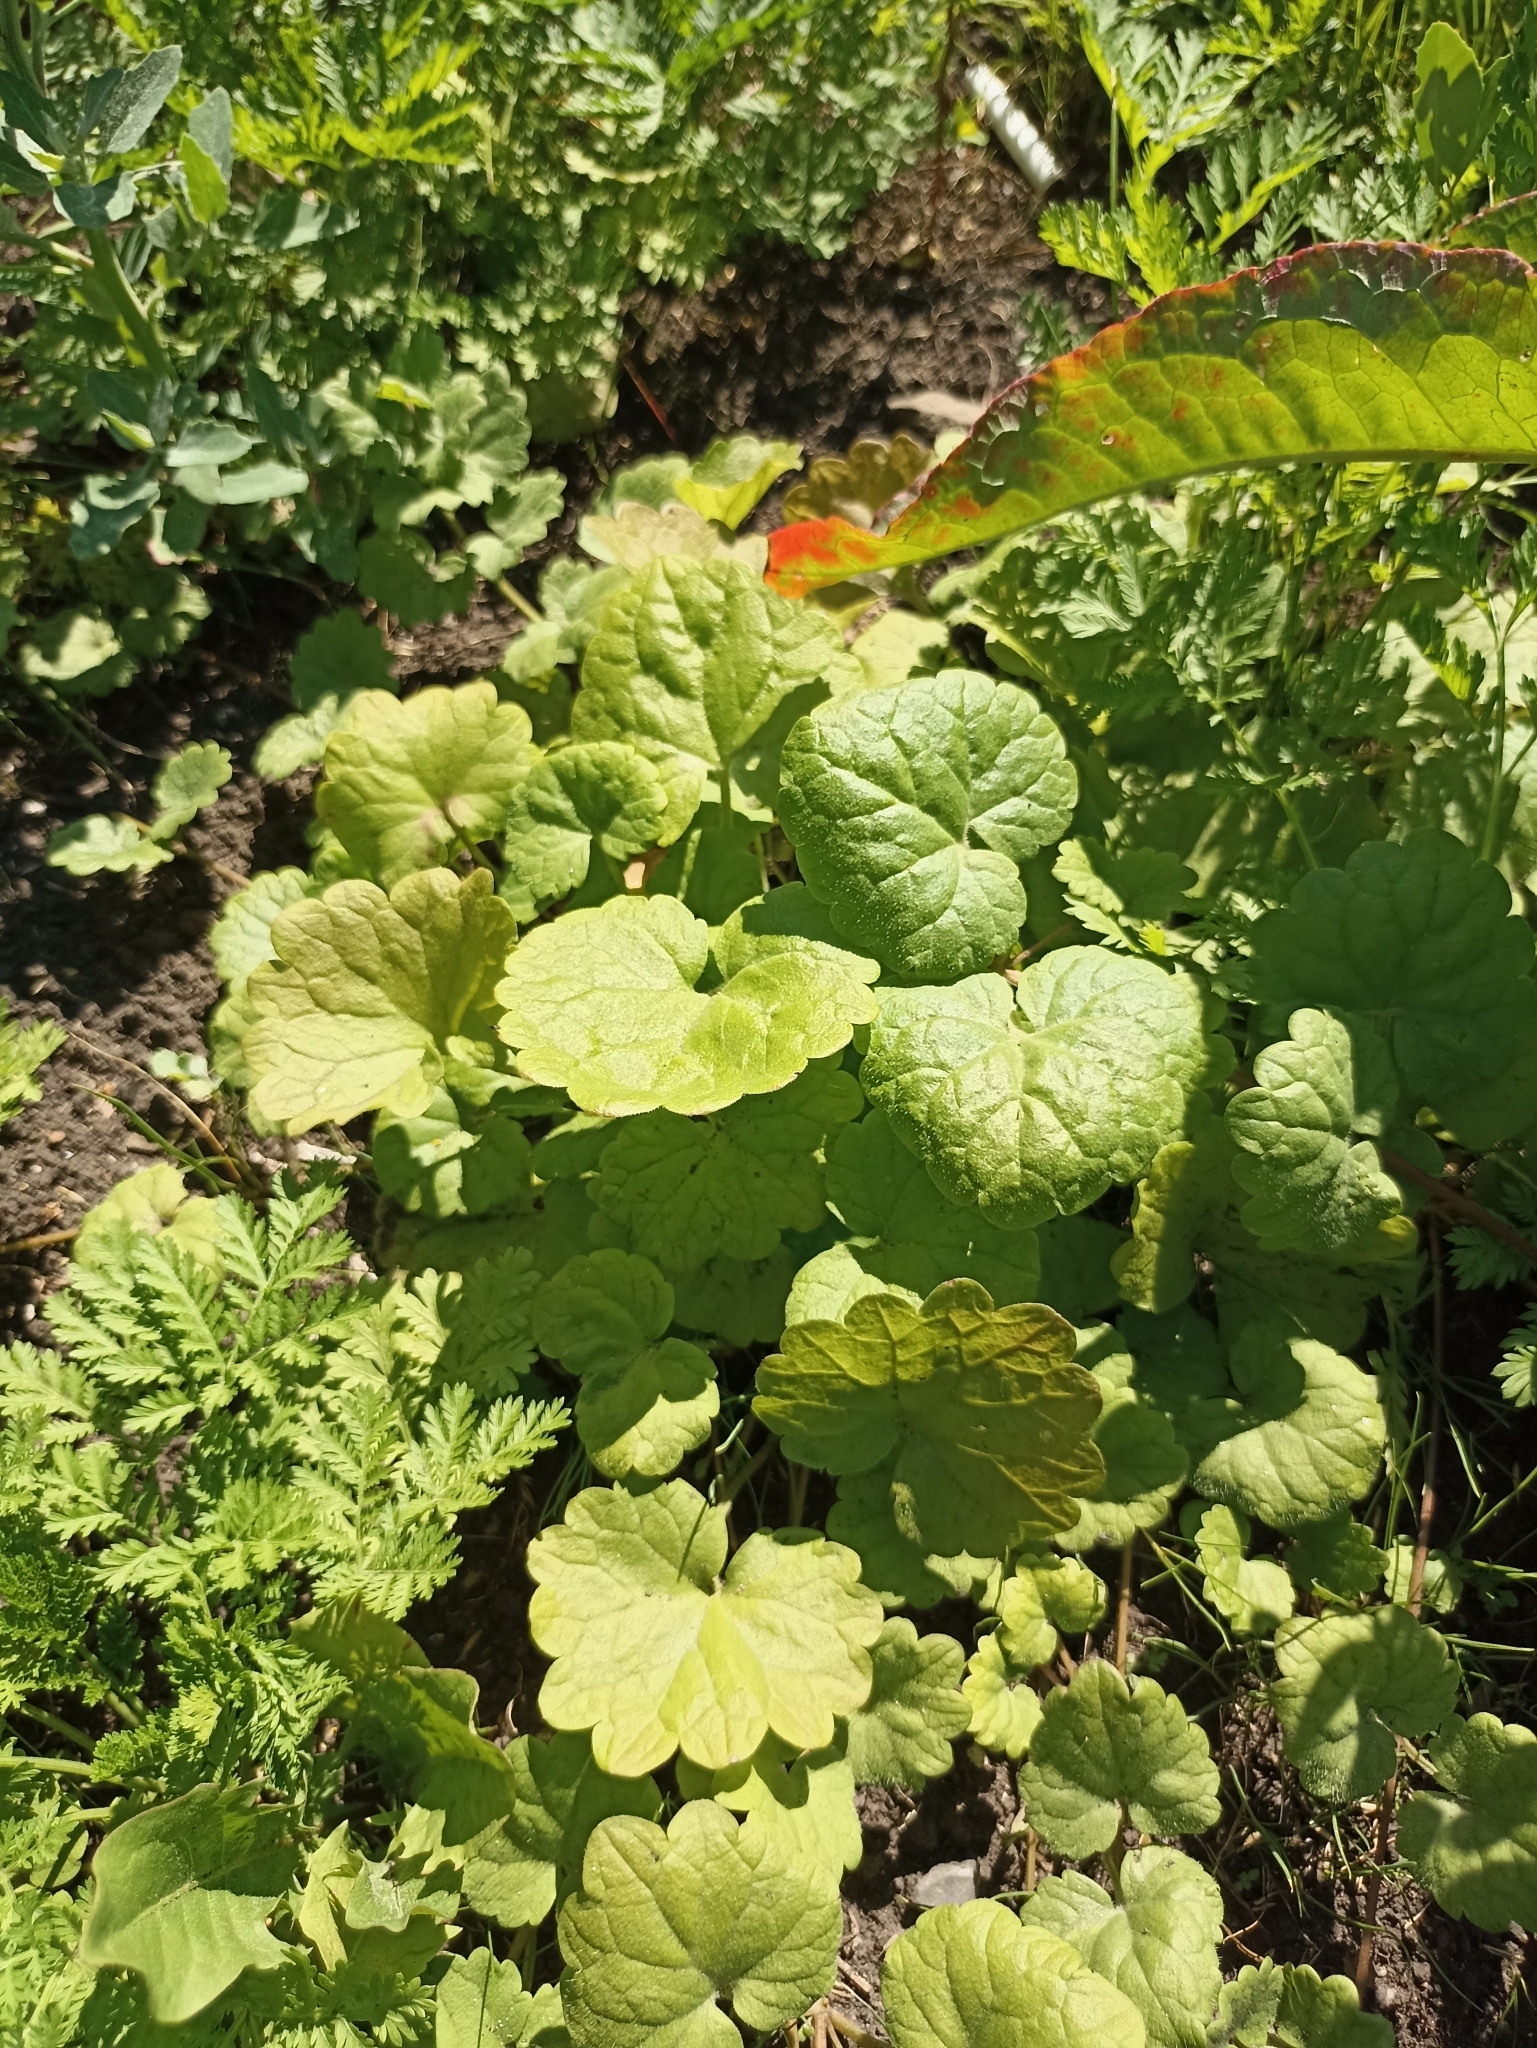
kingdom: Plantae
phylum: Tracheophyta
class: Magnoliopsida
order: Lamiales
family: Lamiaceae
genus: Glechoma
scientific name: Glechoma hederacea
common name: Ground ivy
